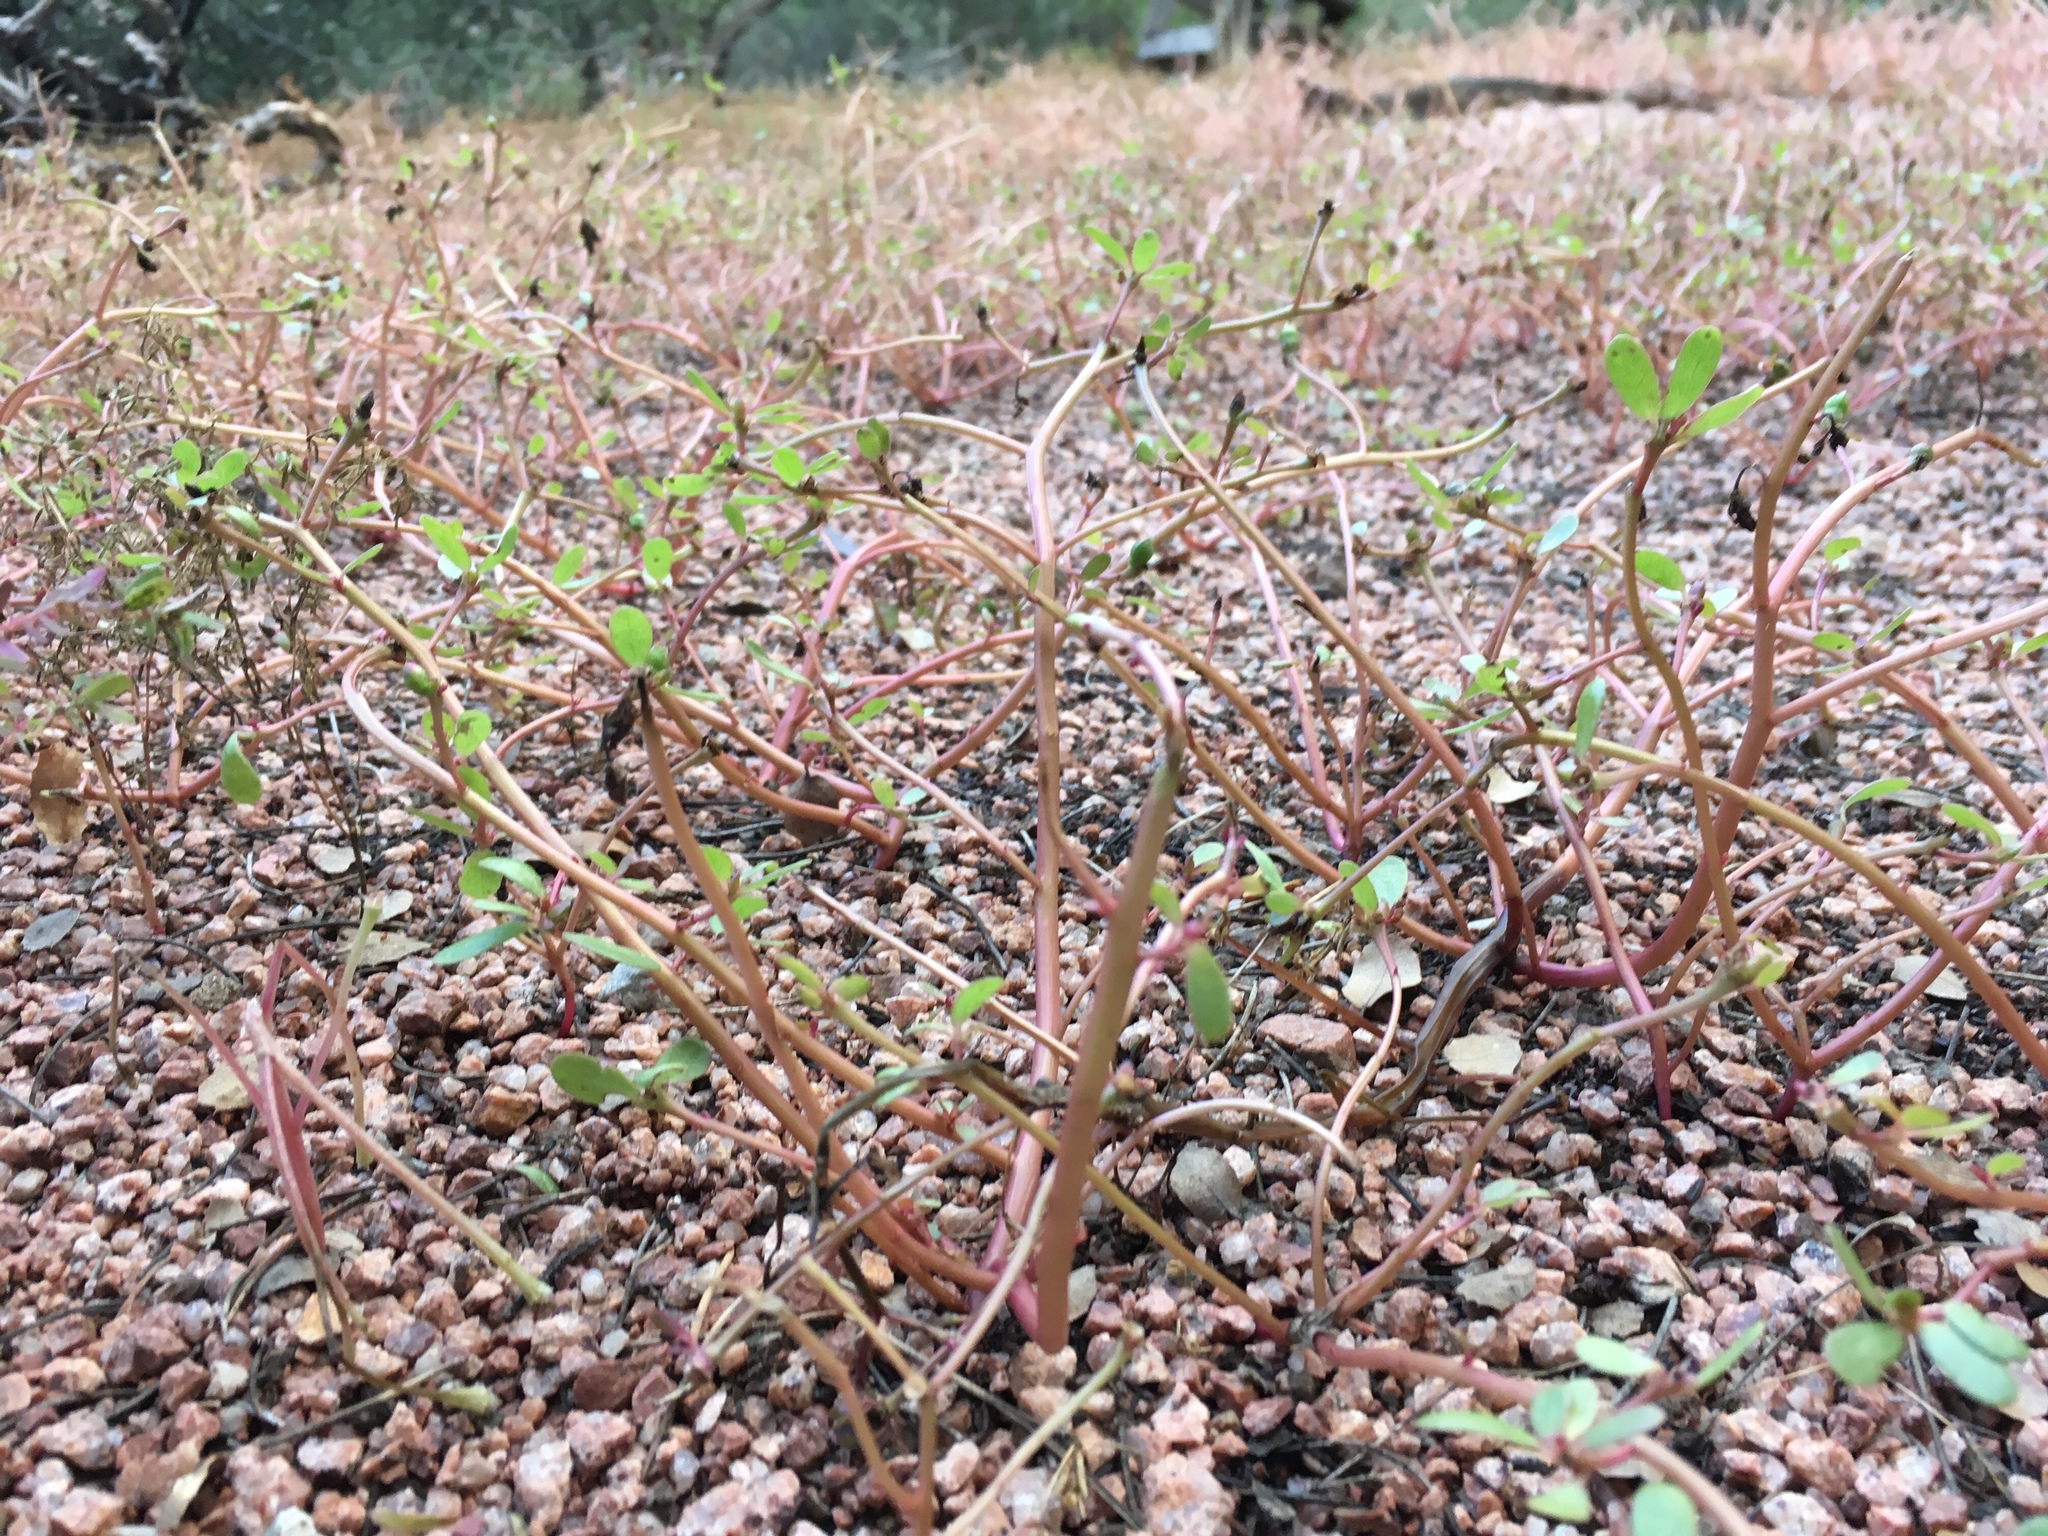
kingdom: Plantae
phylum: Tracheophyta
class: Magnoliopsida
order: Caryophyllales
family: Portulacaceae
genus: Portulaca
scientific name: Portulaca oleracea
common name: Common purslane
